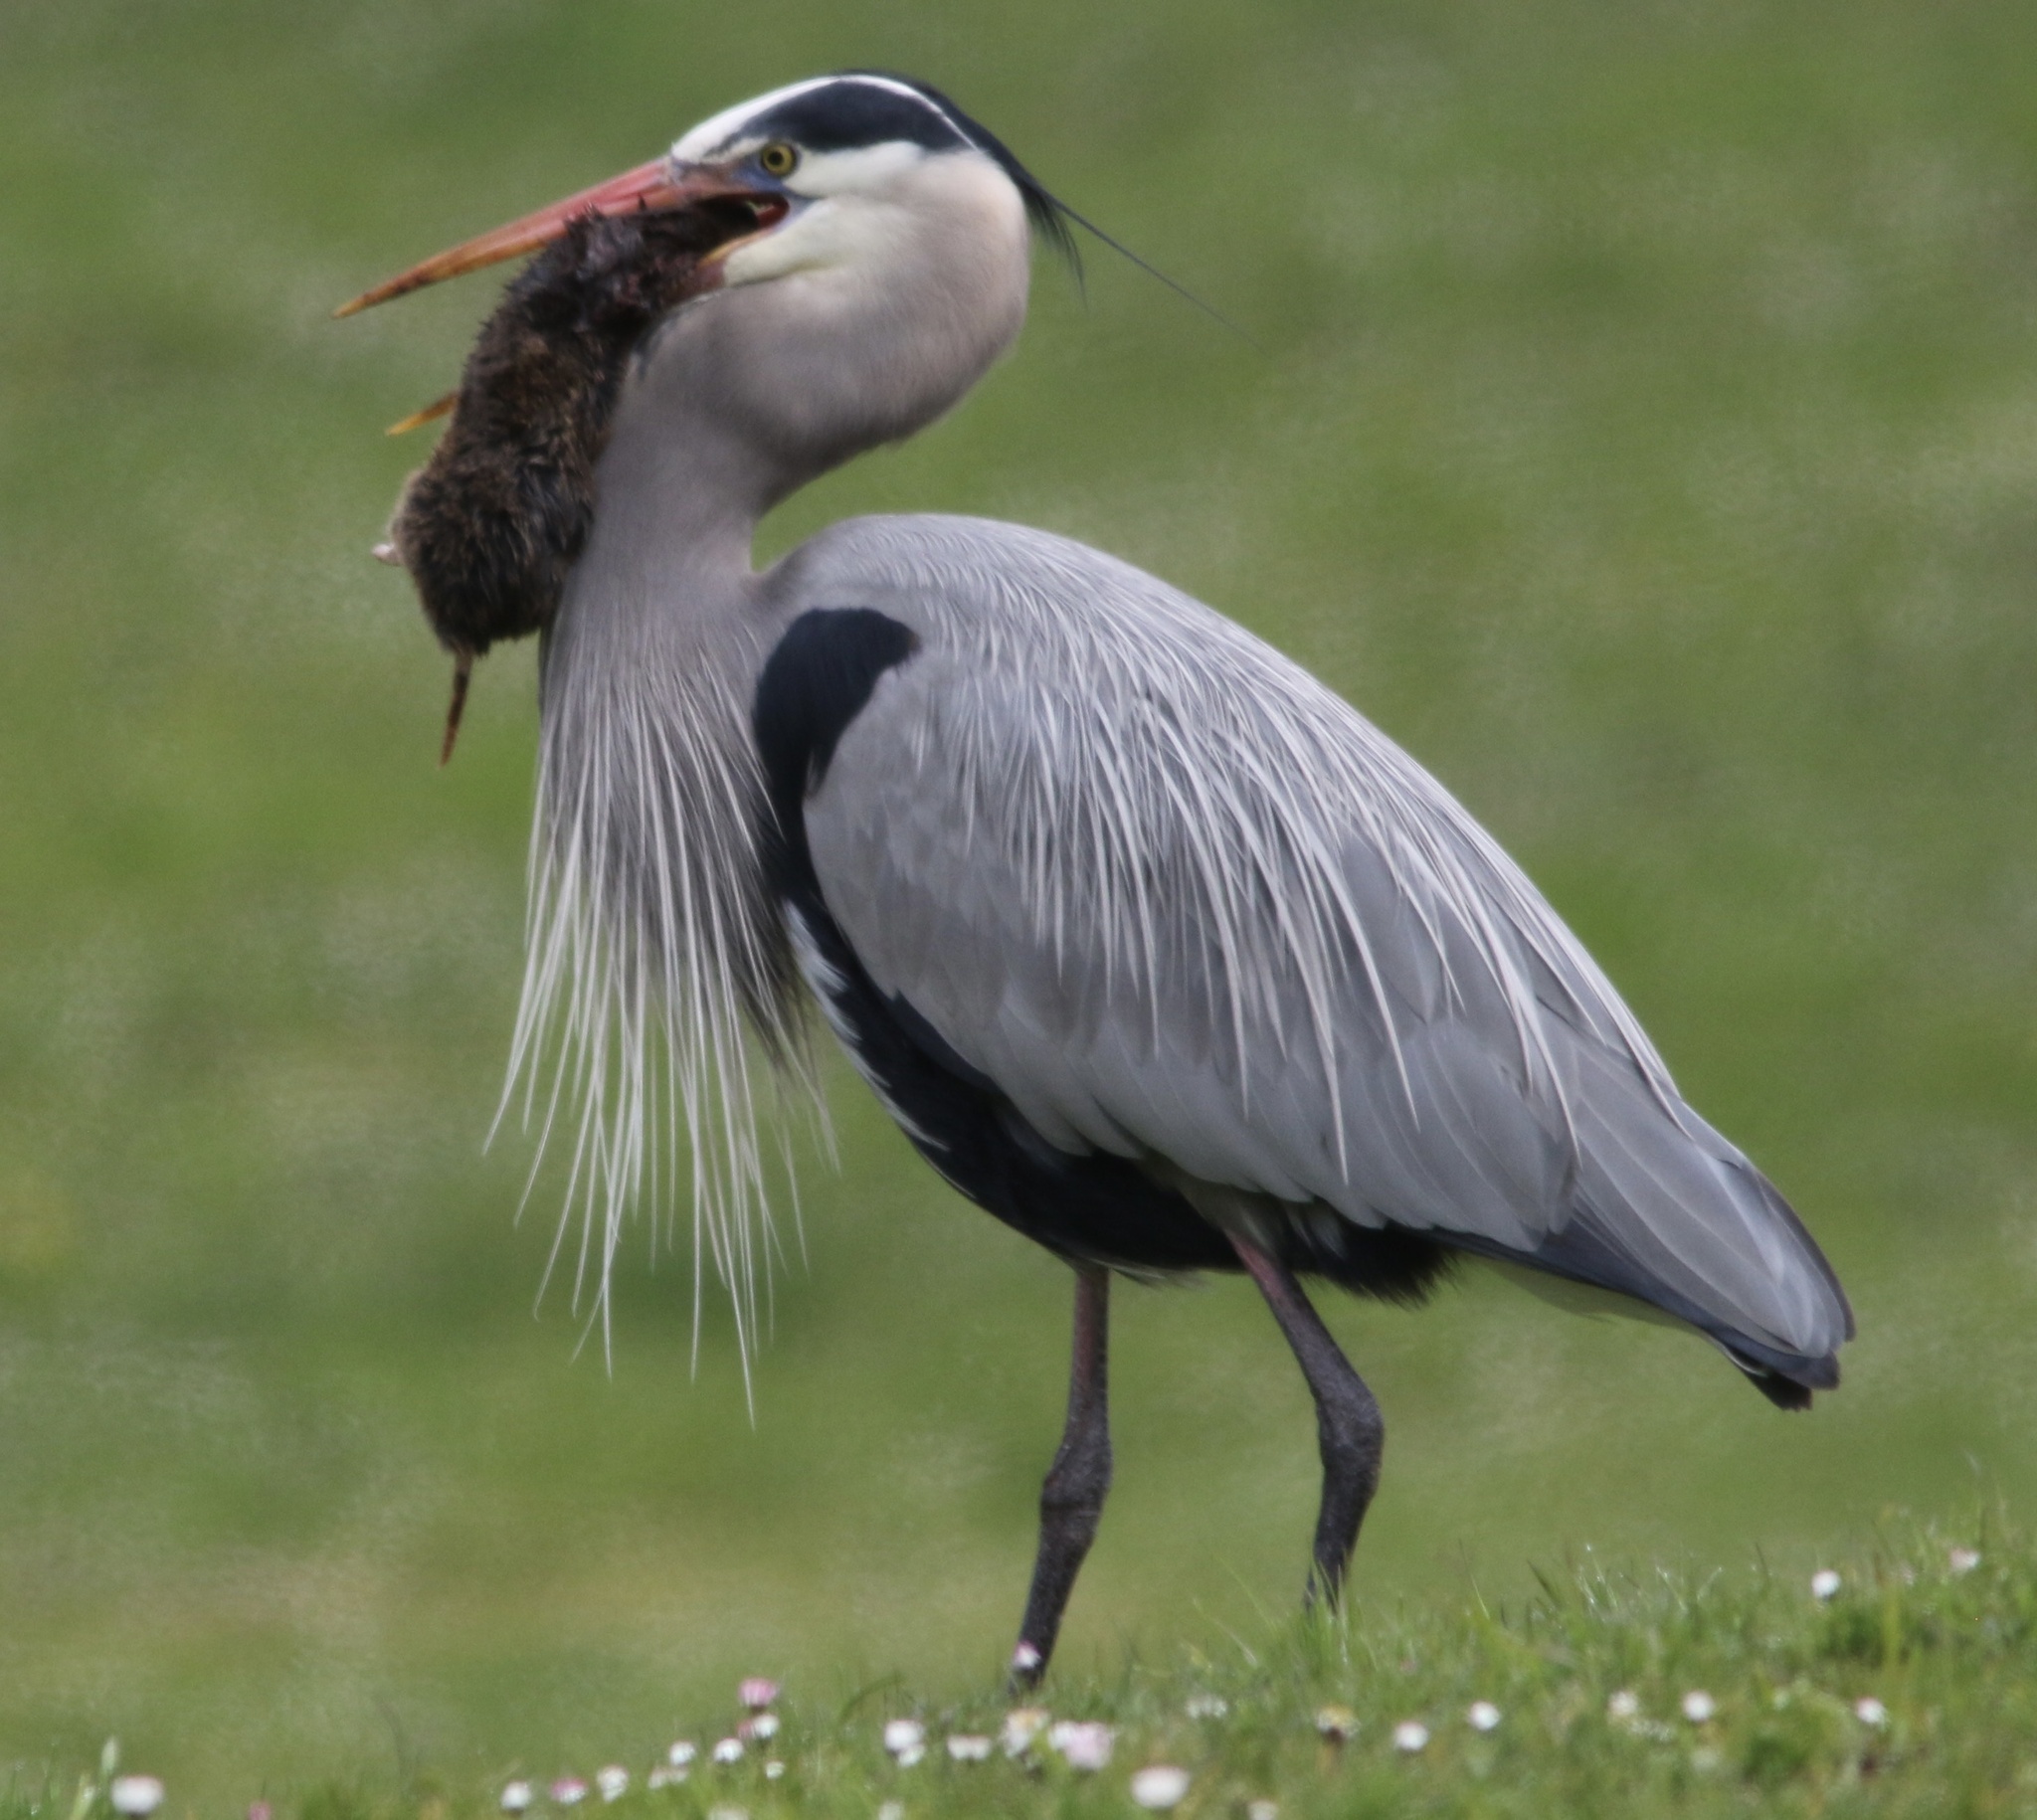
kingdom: Animalia
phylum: Chordata
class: Aves
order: Pelecaniformes
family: Ardeidae
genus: Ardea
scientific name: Ardea herodias
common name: Great blue heron
